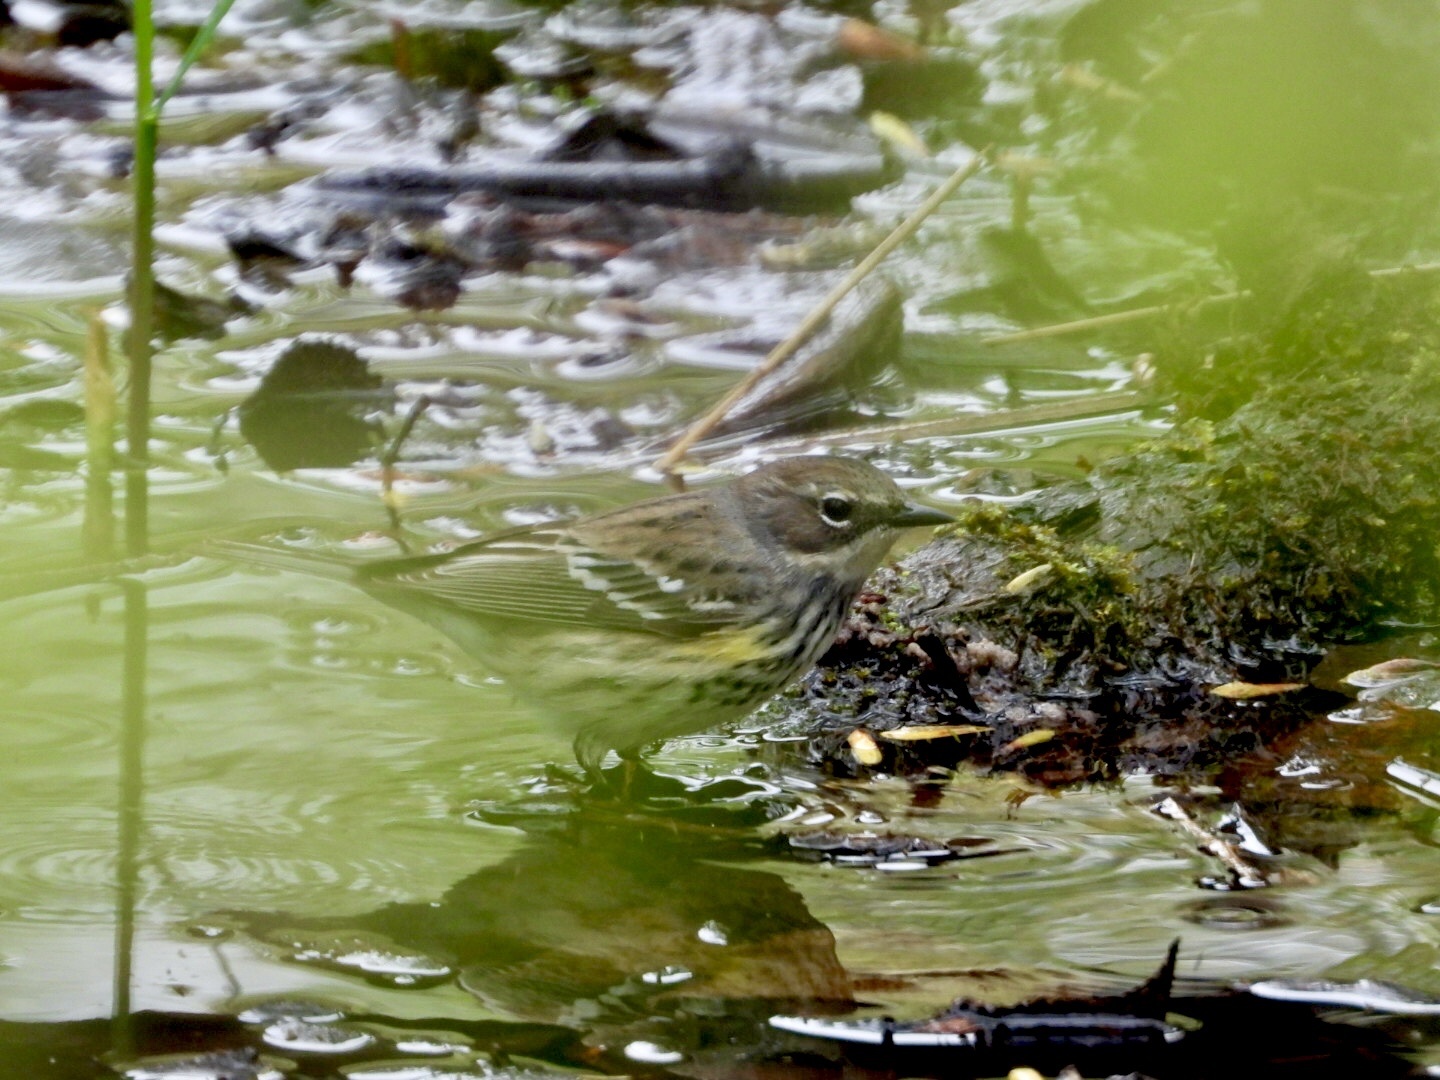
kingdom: Animalia
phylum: Chordata
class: Aves
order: Passeriformes
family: Parulidae
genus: Setophaga
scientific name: Setophaga coronata
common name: Myrtle warbler
